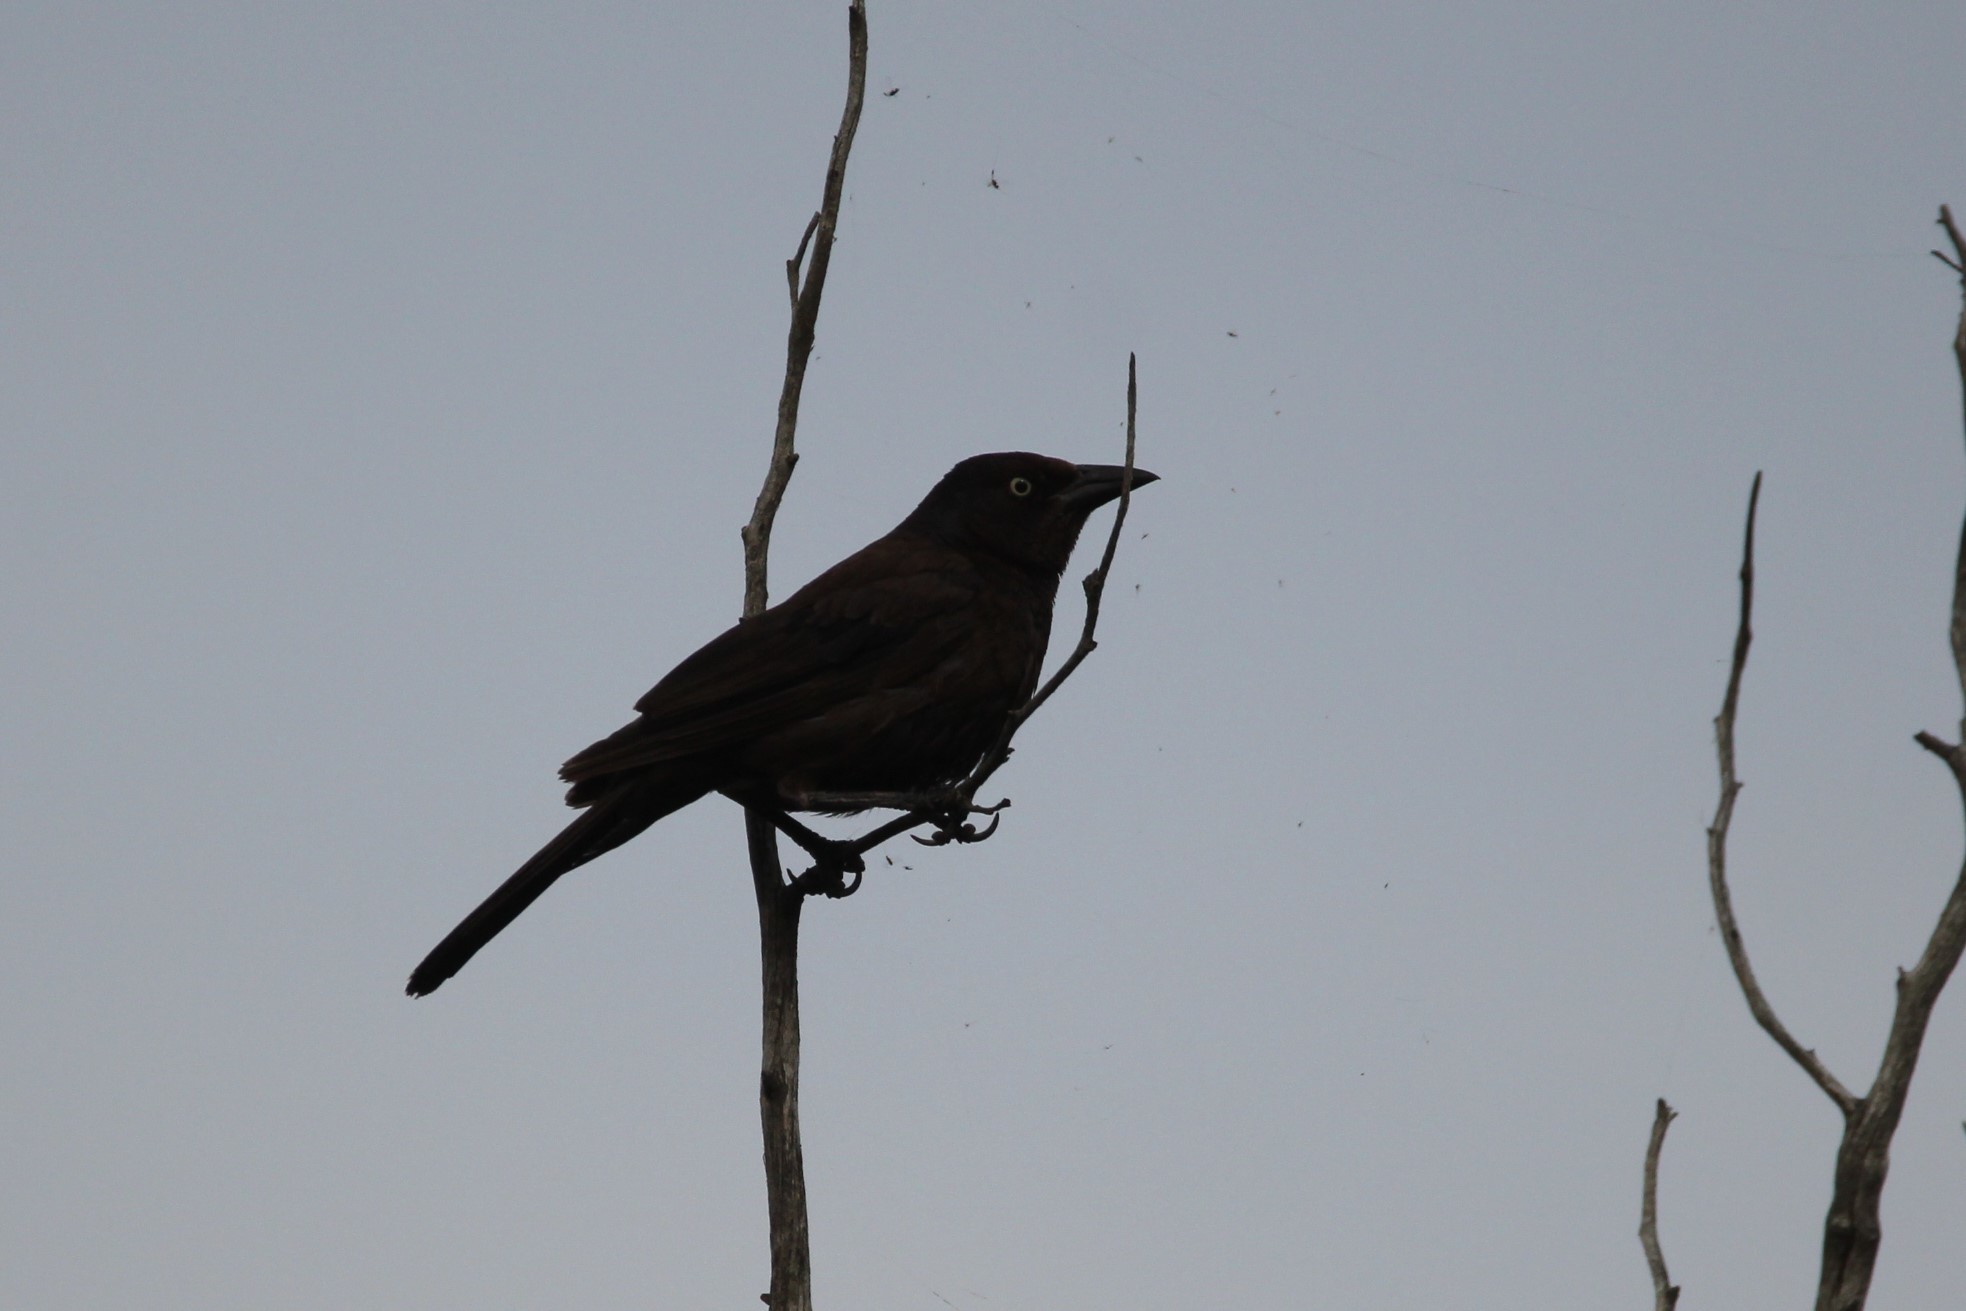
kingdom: Animalia
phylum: Chordata
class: Aves
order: Passeriformes
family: Icteridae
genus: Quiscalus
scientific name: Quiscalus quiscula
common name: Common grackle
